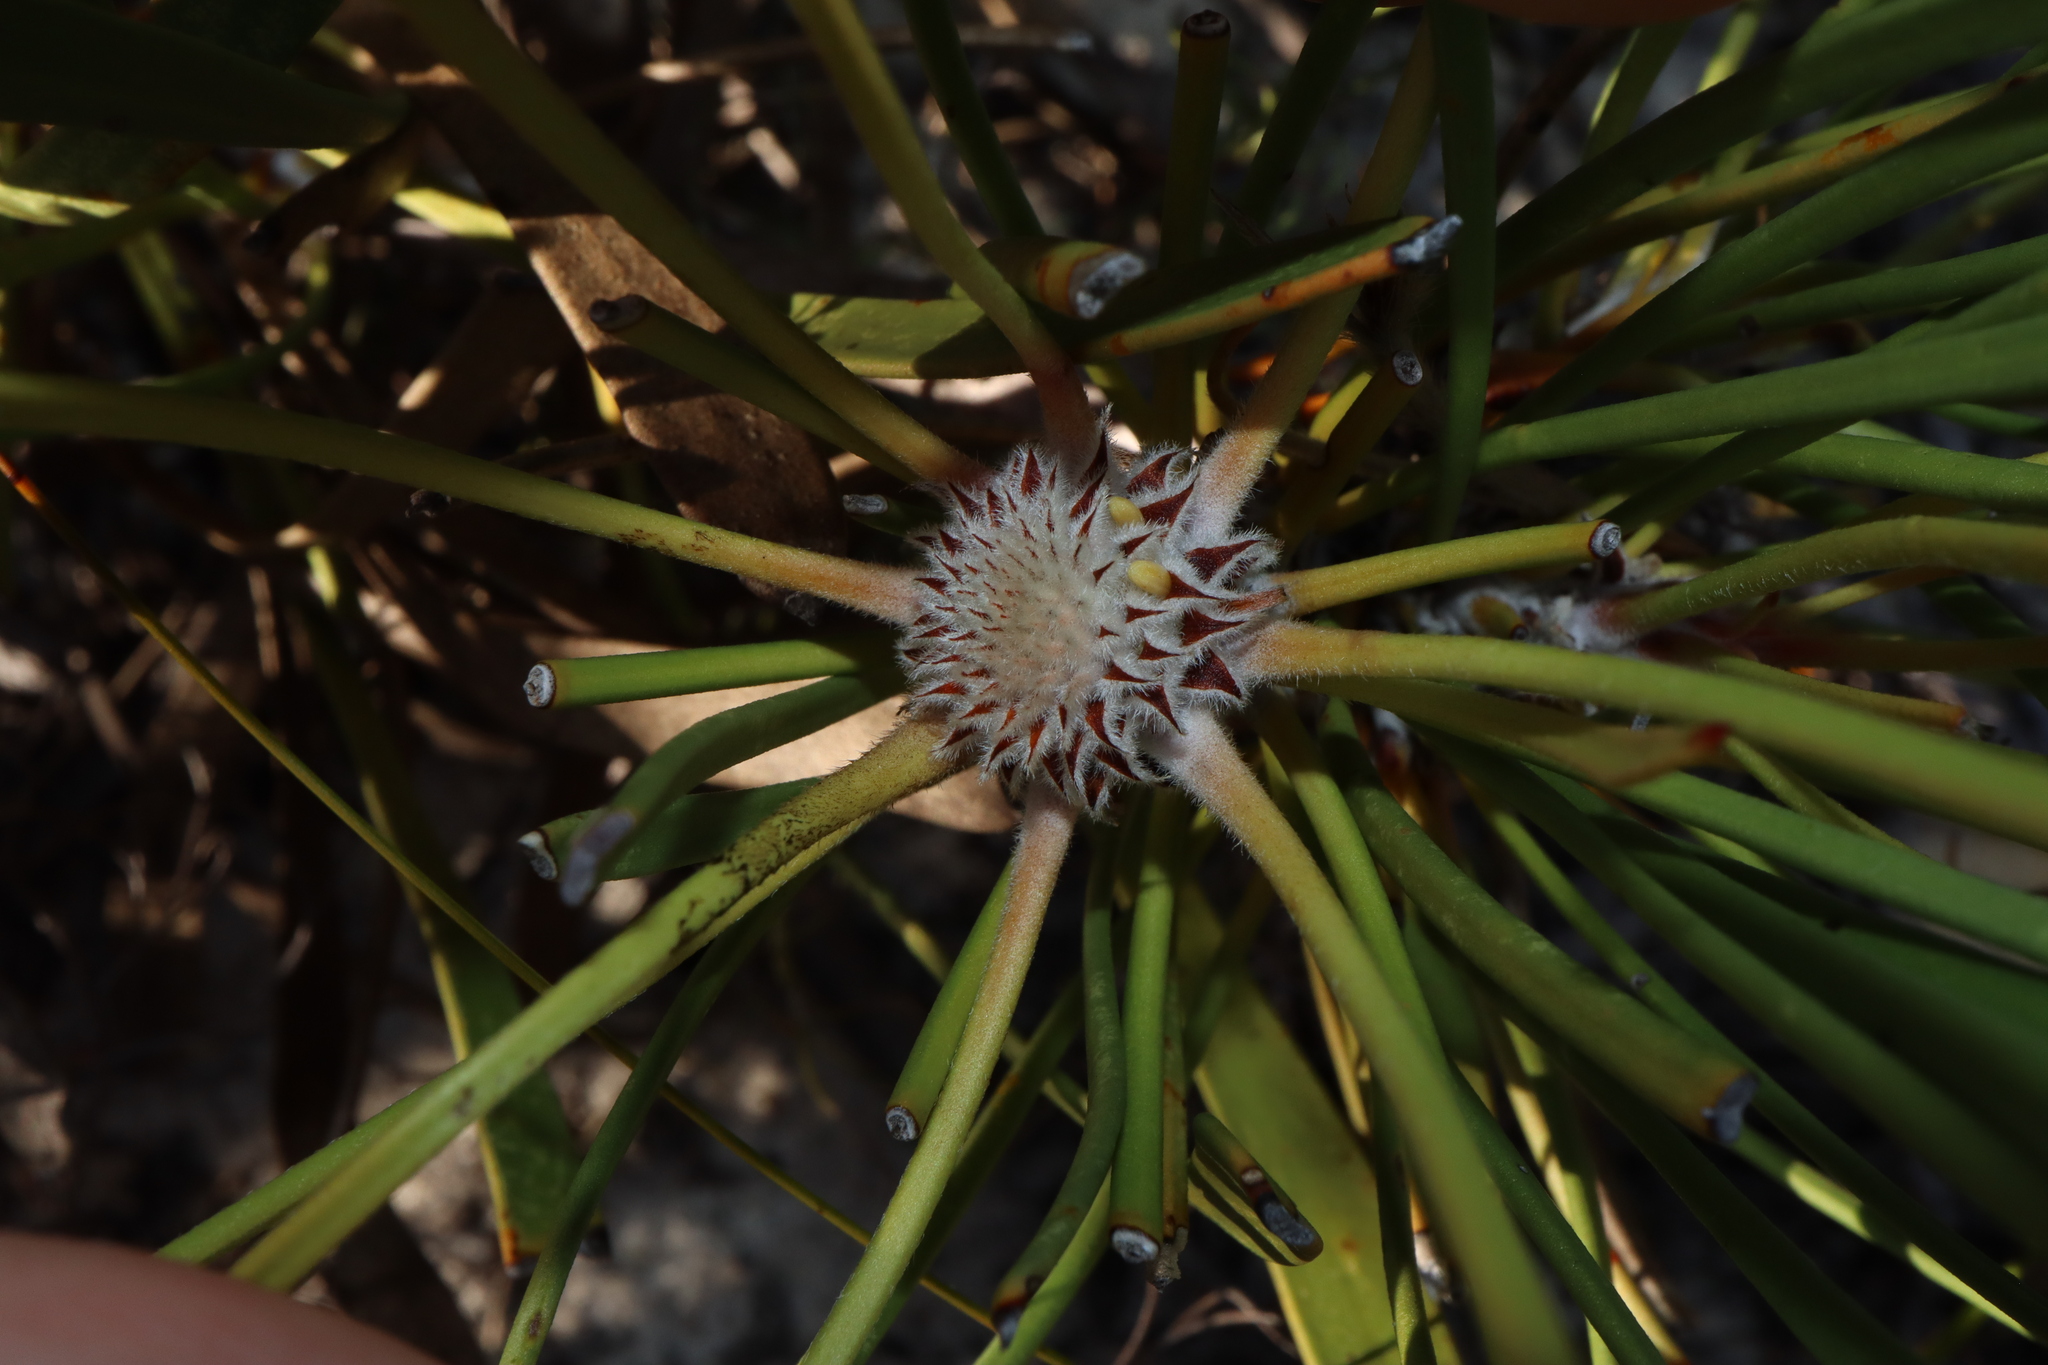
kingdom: Plantae
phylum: Tracheophyta
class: Magnoliopsida
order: Proteales
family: Proteaceae
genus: Isopogon
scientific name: Isopogon polycephalus
